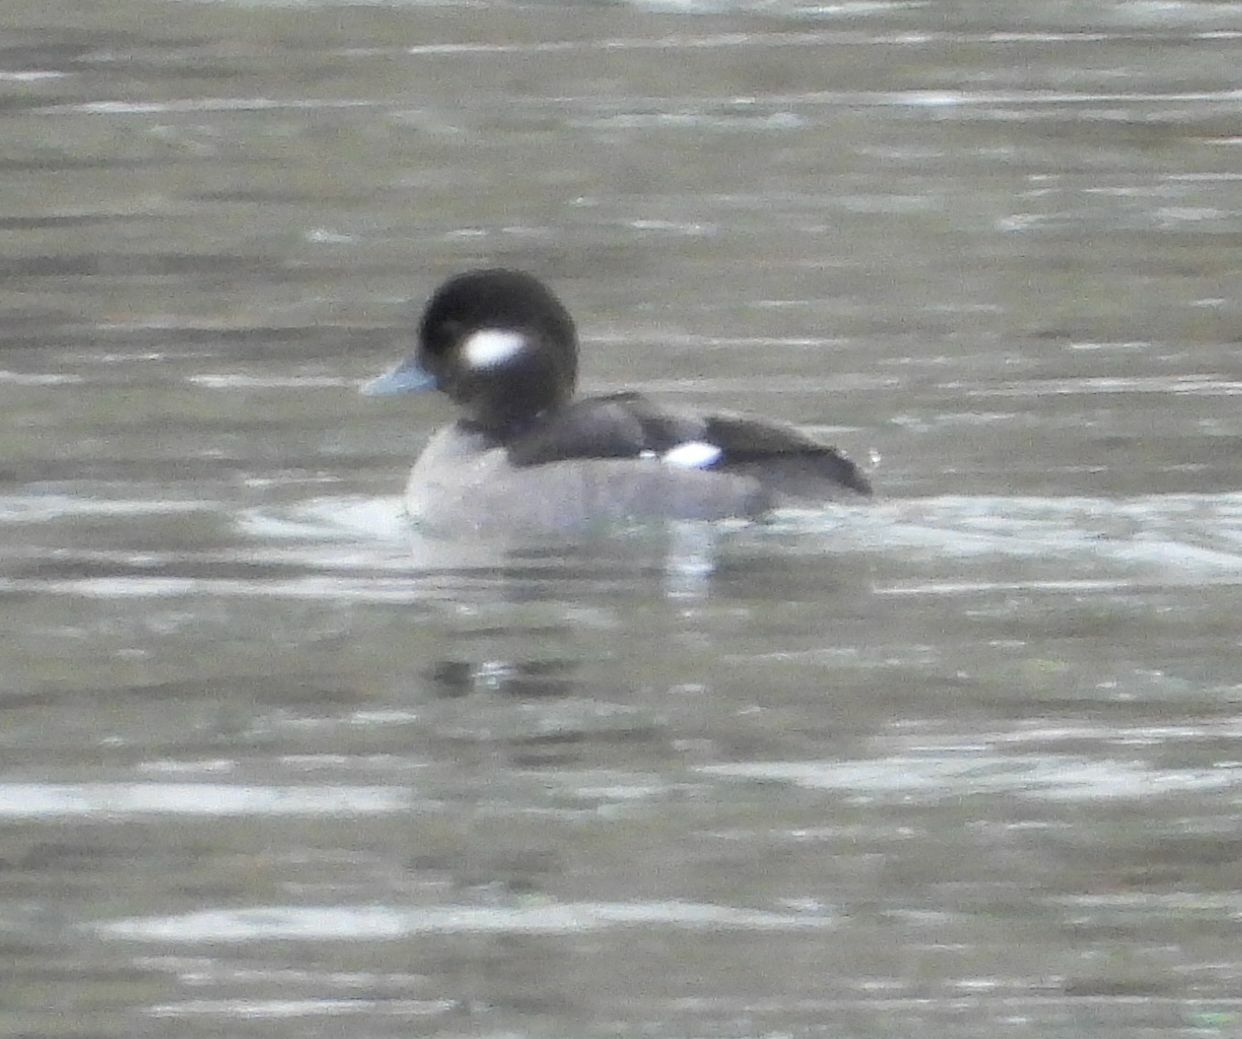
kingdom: Animalia
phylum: Chordata
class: Aves
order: Anseriformes
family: Anatidae
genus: Bucephala
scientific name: Bucephala albeola
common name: Bufflehead
